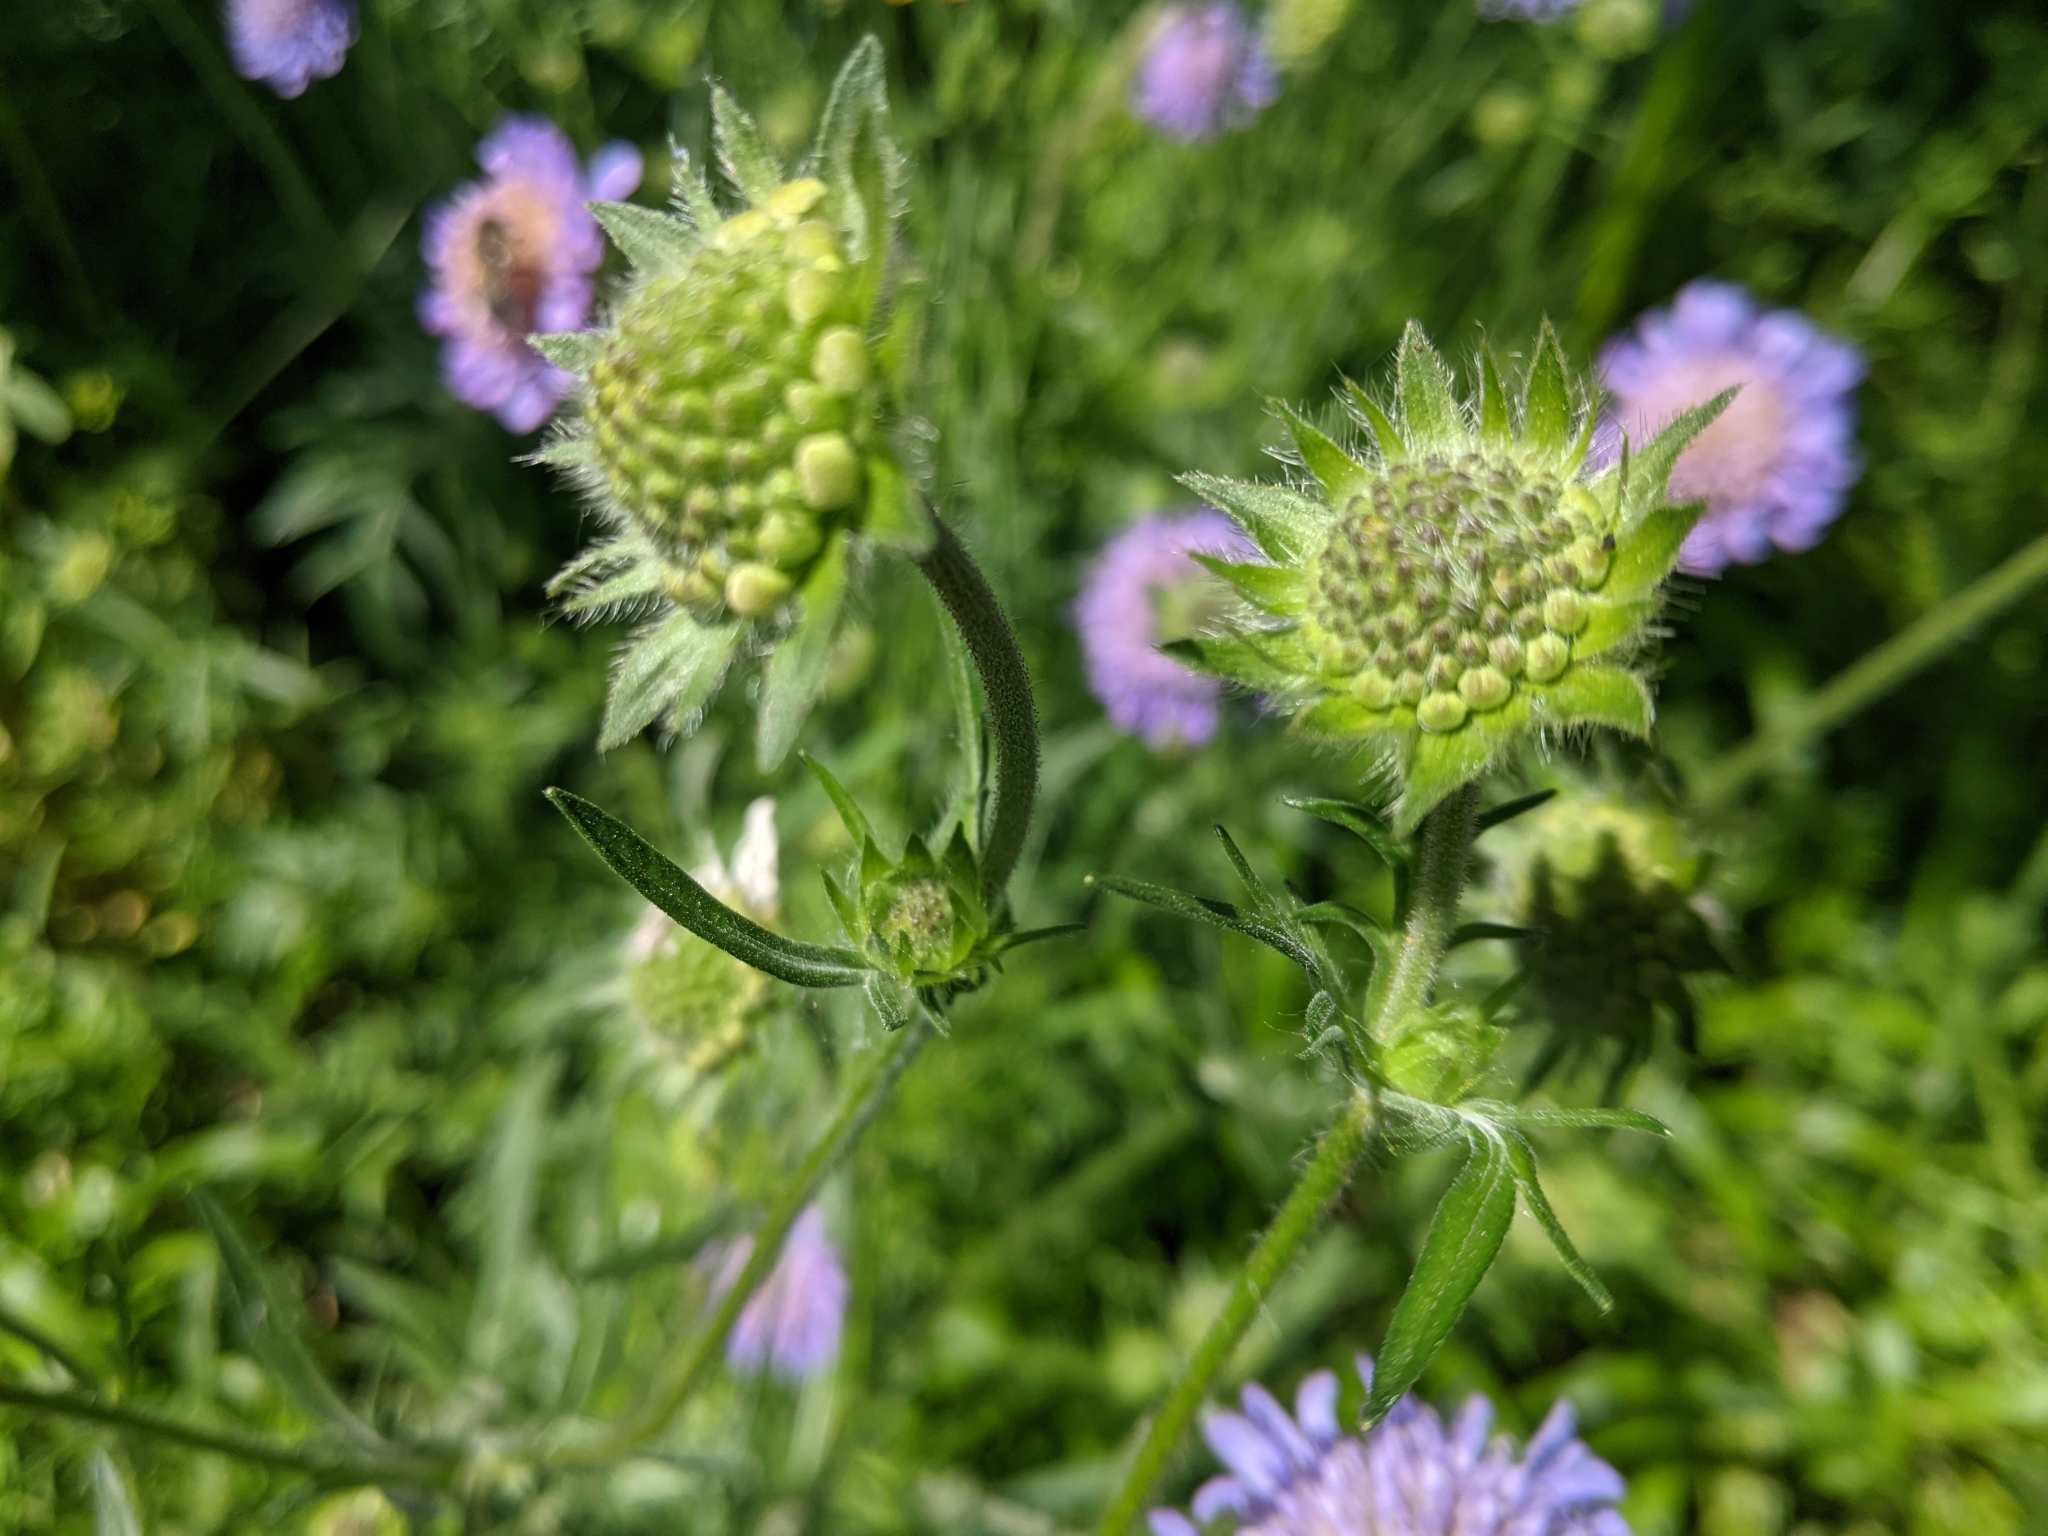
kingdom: Plantae
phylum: Tracheophyta
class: Magnoliopsida
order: Dipsacales
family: Caprifoliaceae
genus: Knautia
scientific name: Knautia arvensis
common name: Field scabiosa
